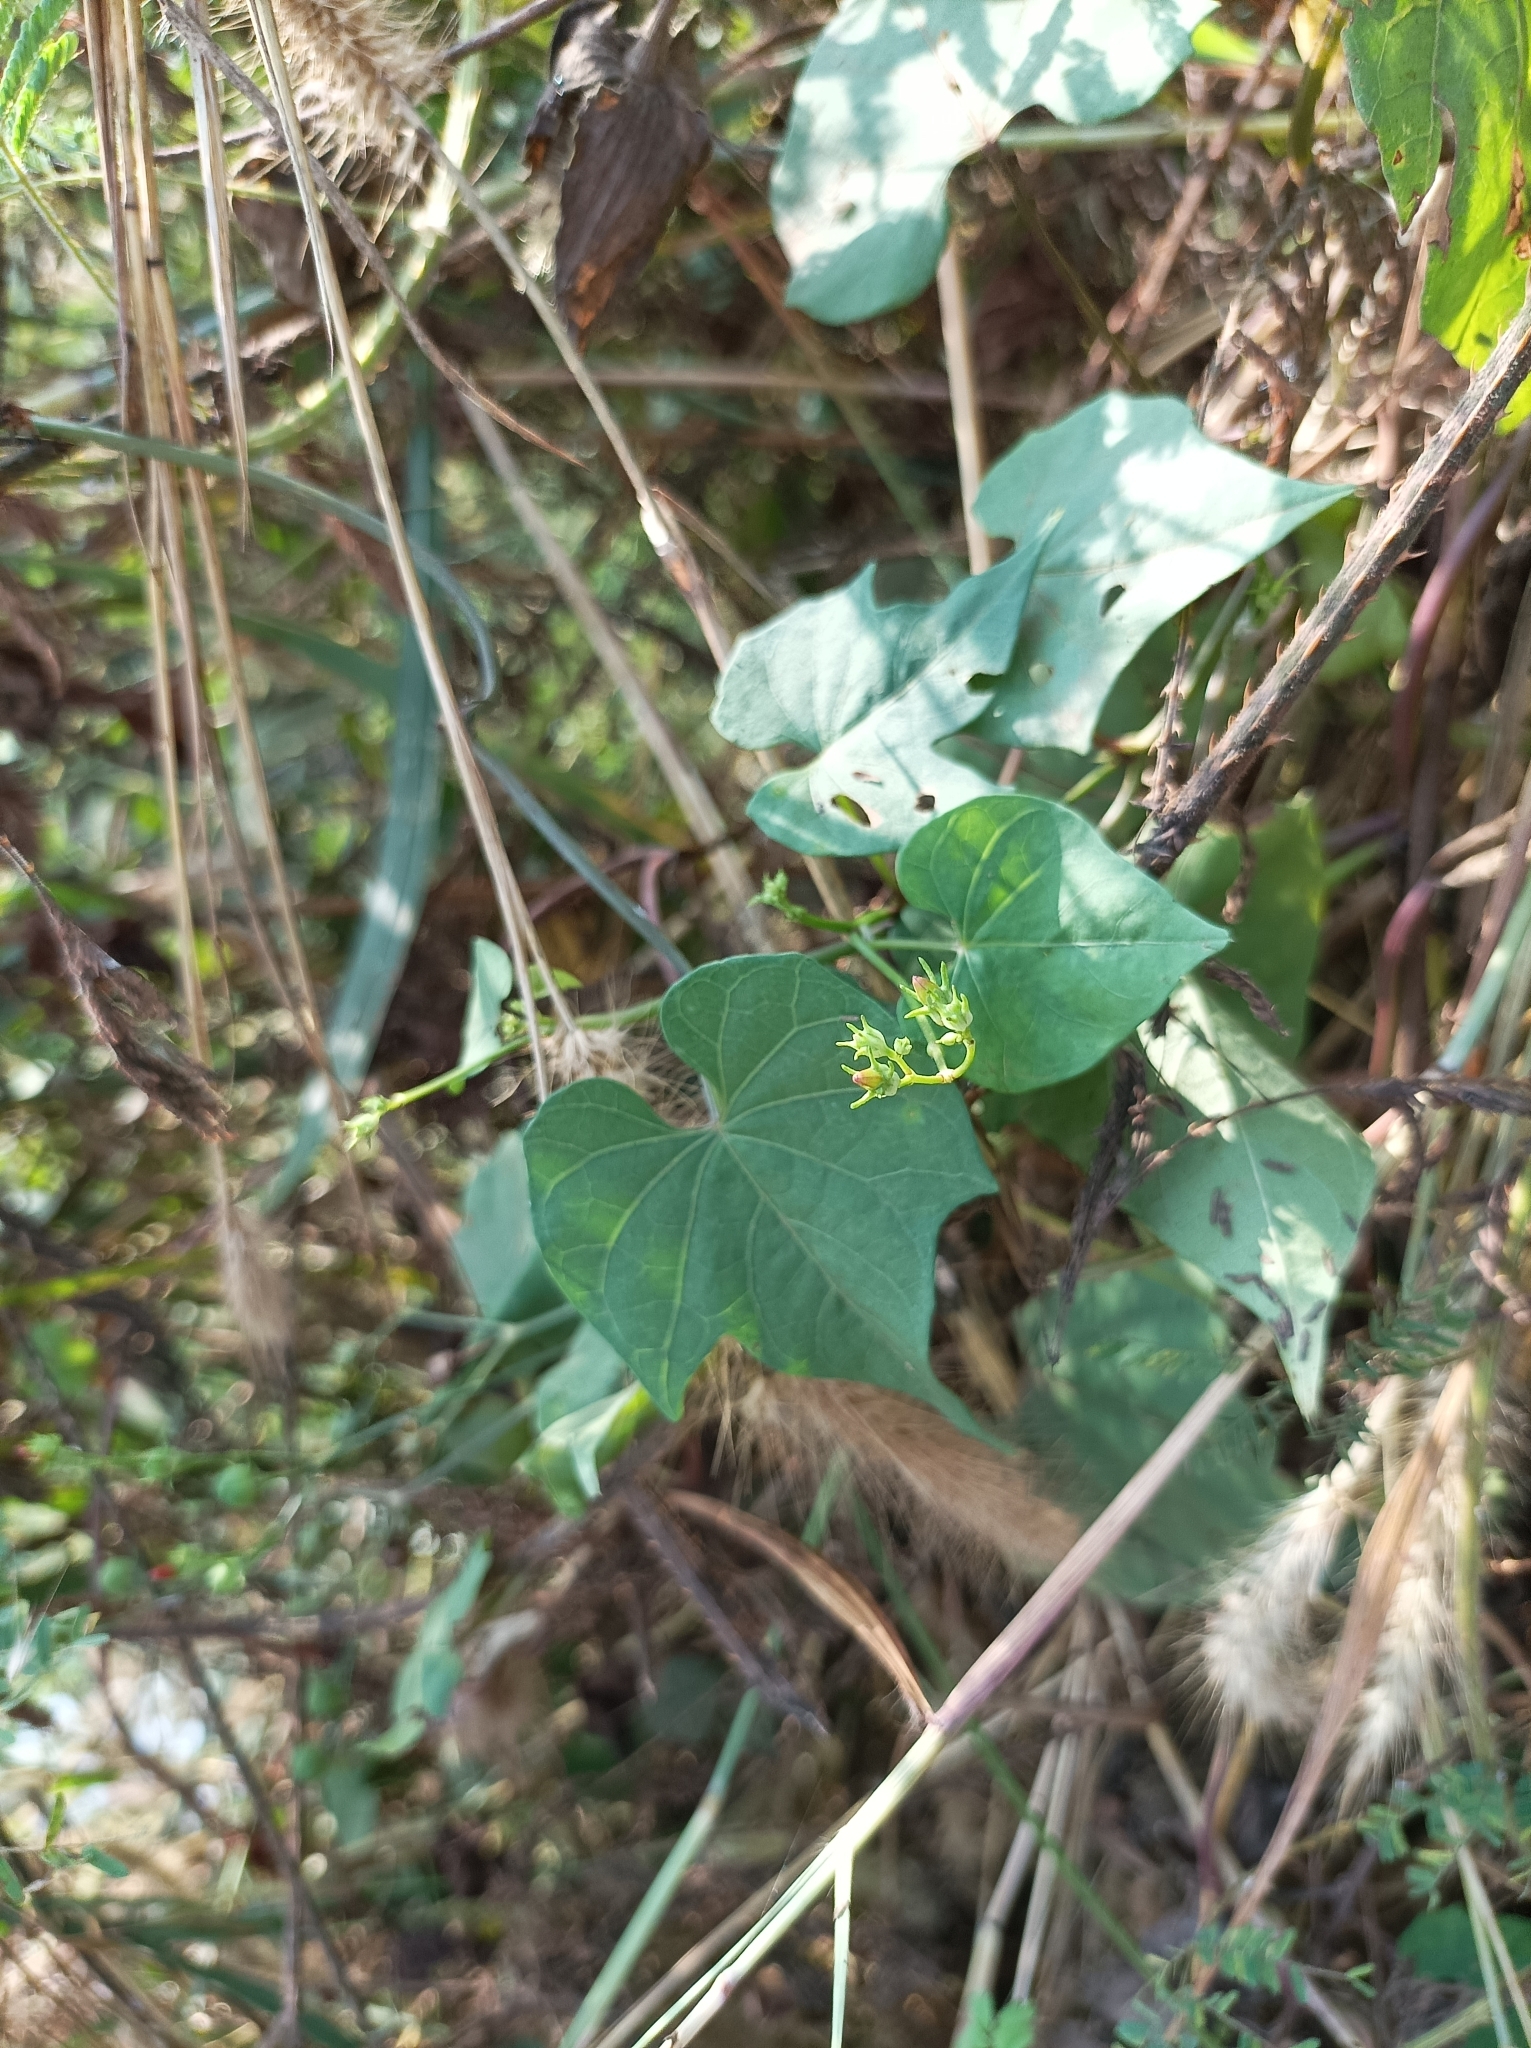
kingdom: Plantae
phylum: Tracheophyta
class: Magnoliopsida
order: Solanales
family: Convolvulaceae
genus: Ipomoea
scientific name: Ipomoea hederifolia
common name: Ivy-leaf morning-glory
